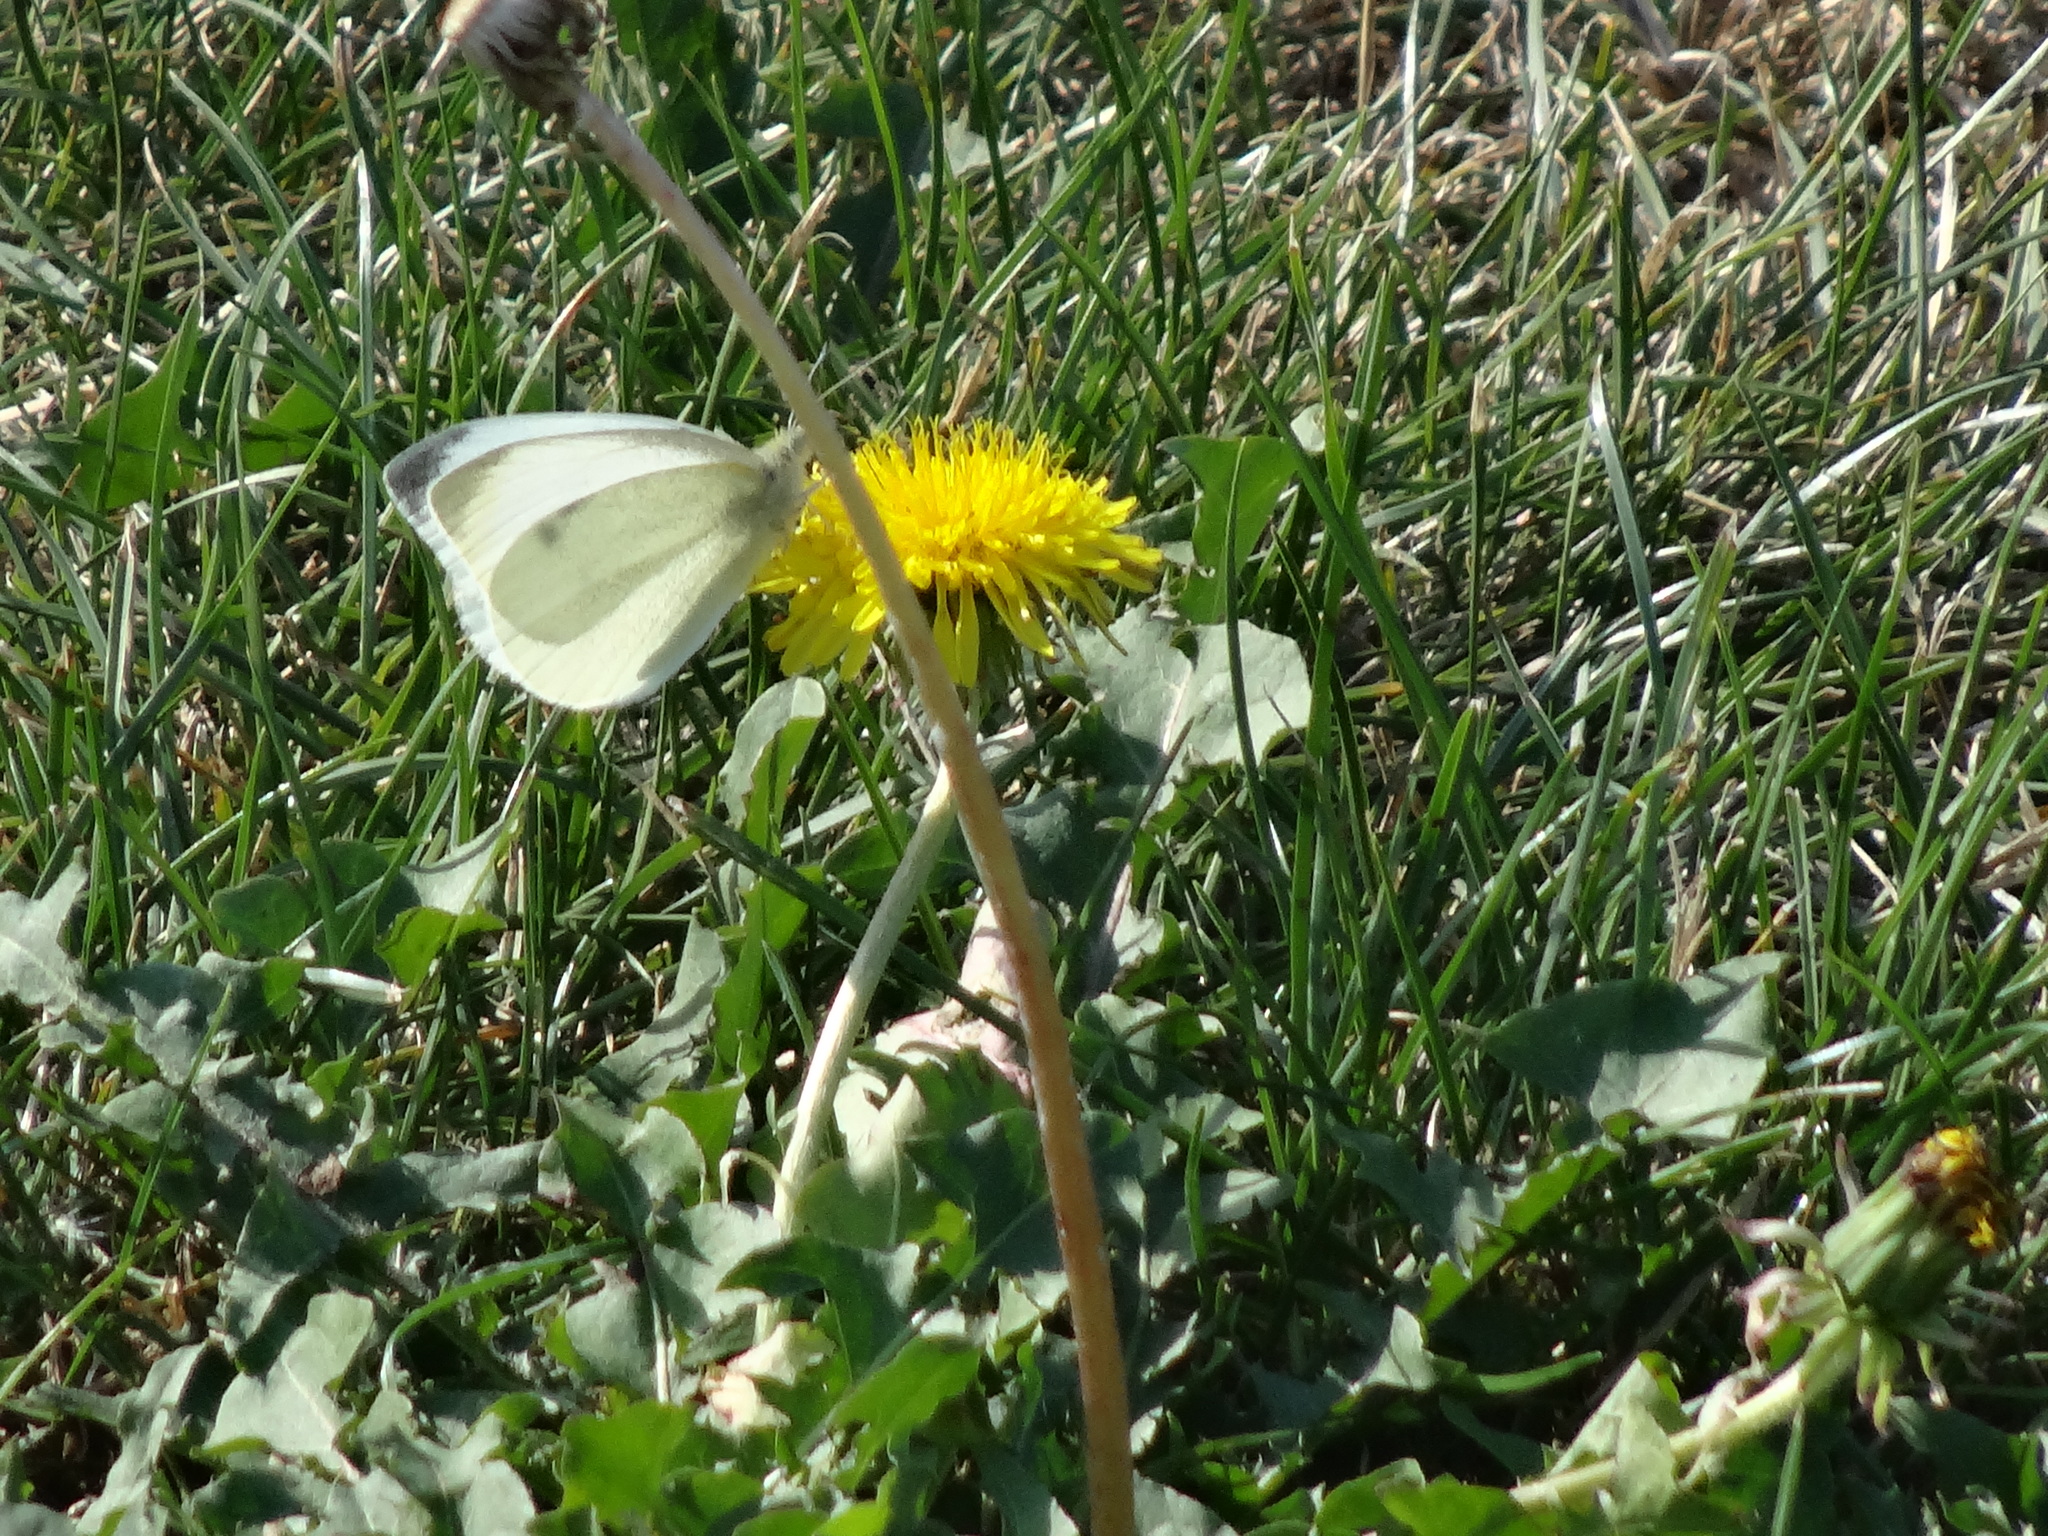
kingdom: Animalia
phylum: Arthropoda
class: Insecta
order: Lepidoptera
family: Pieridae
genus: Pieris
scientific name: Pieris rapae
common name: Small white
